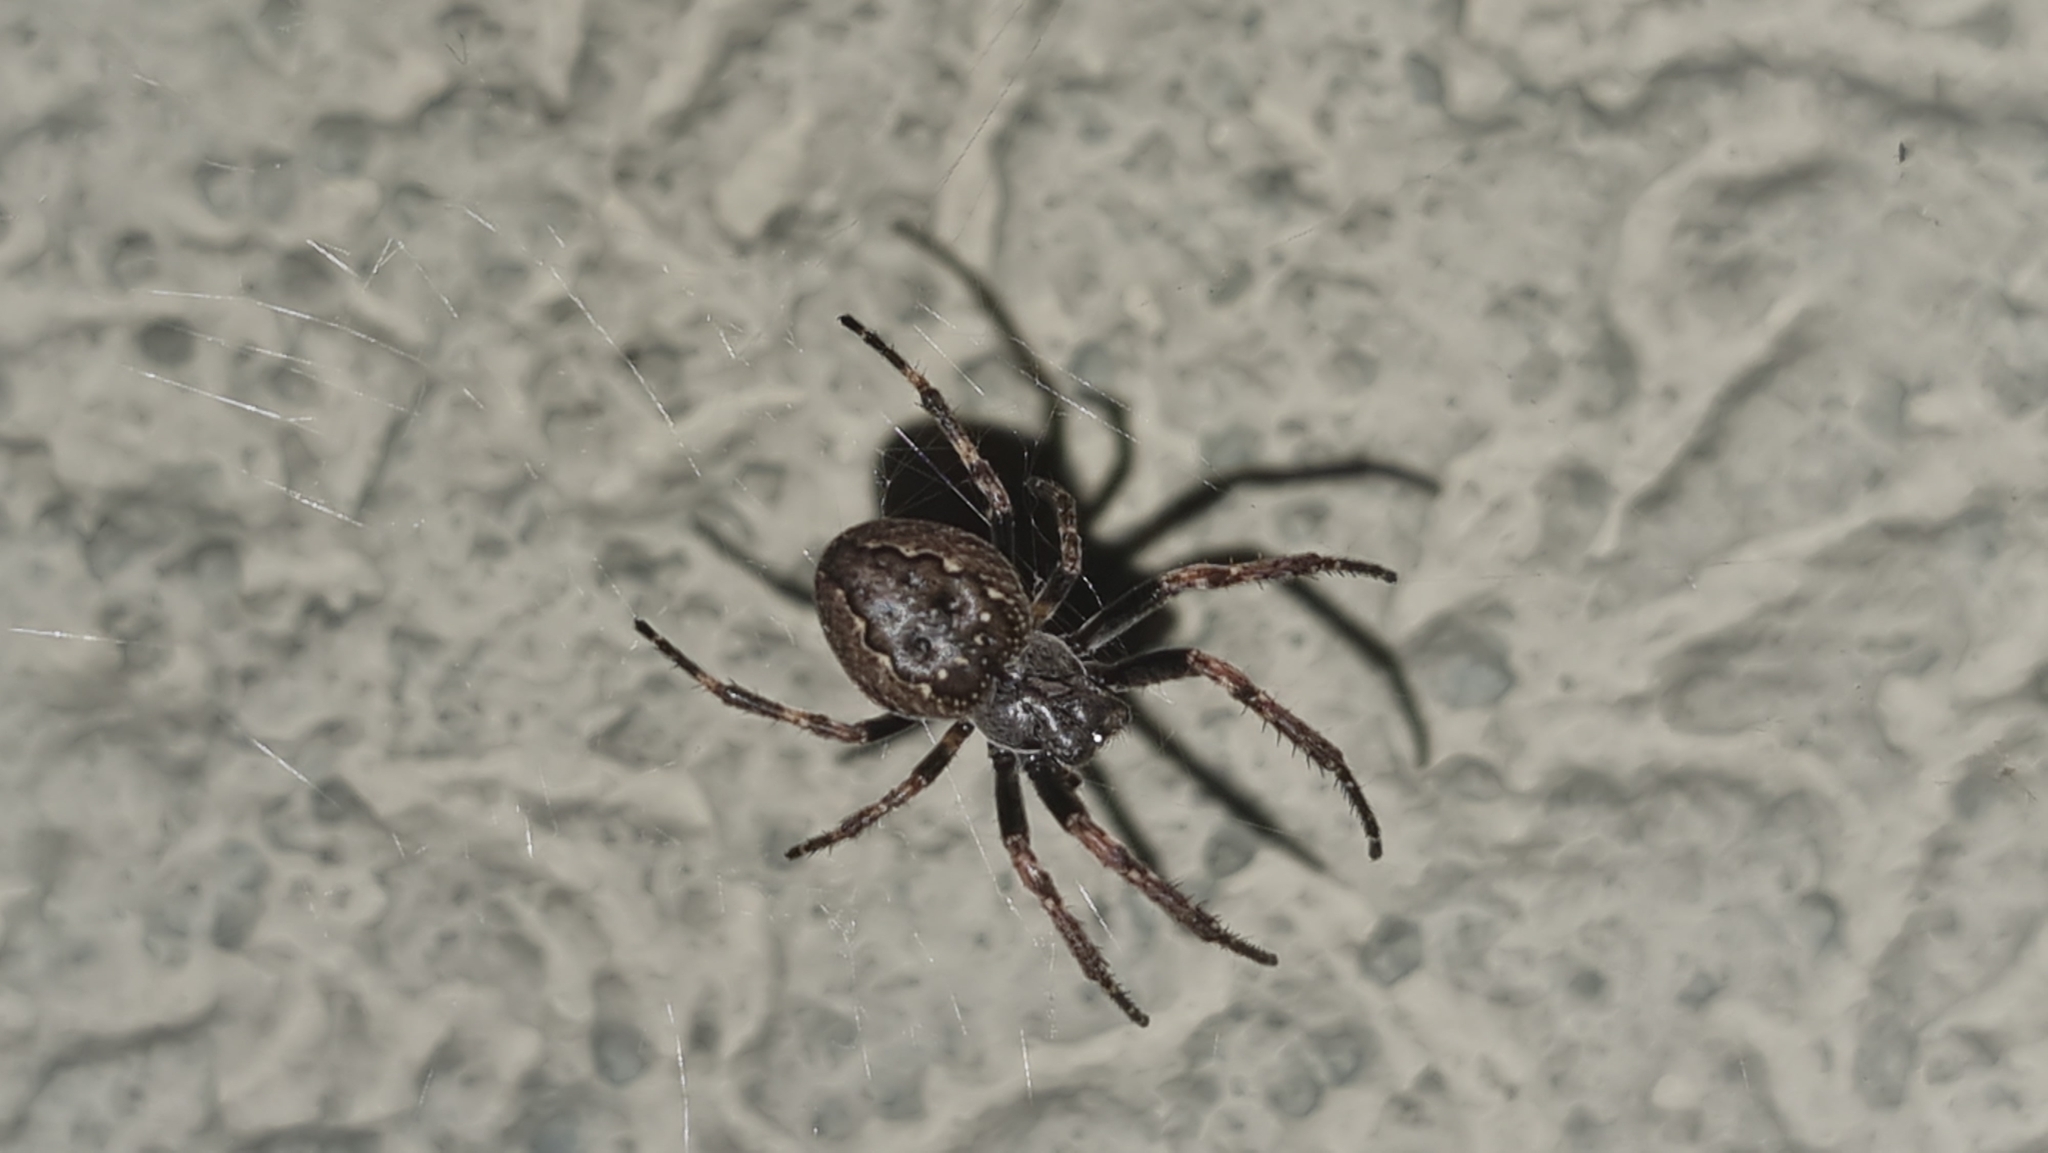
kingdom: Animalia
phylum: Arthropoda
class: Arachnida
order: Araneae
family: Araneidae
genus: Nuctenea
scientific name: Nuctenea umbratica
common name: Toad spider
